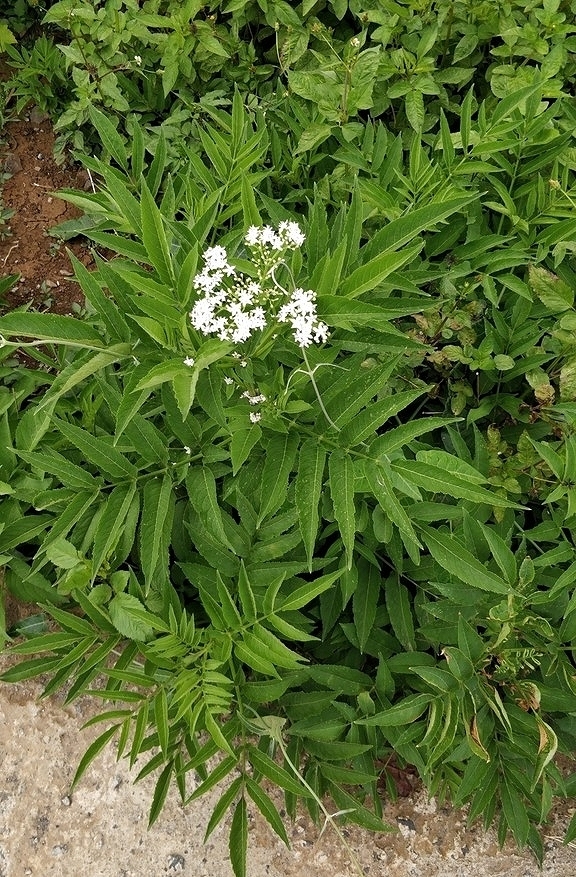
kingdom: Plantae
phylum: Tracheophyta
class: Magnoliopsida
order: Dipsacales
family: Viburnaceae
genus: Sambucus
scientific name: Sambucus ebulus
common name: Dwarf elder
